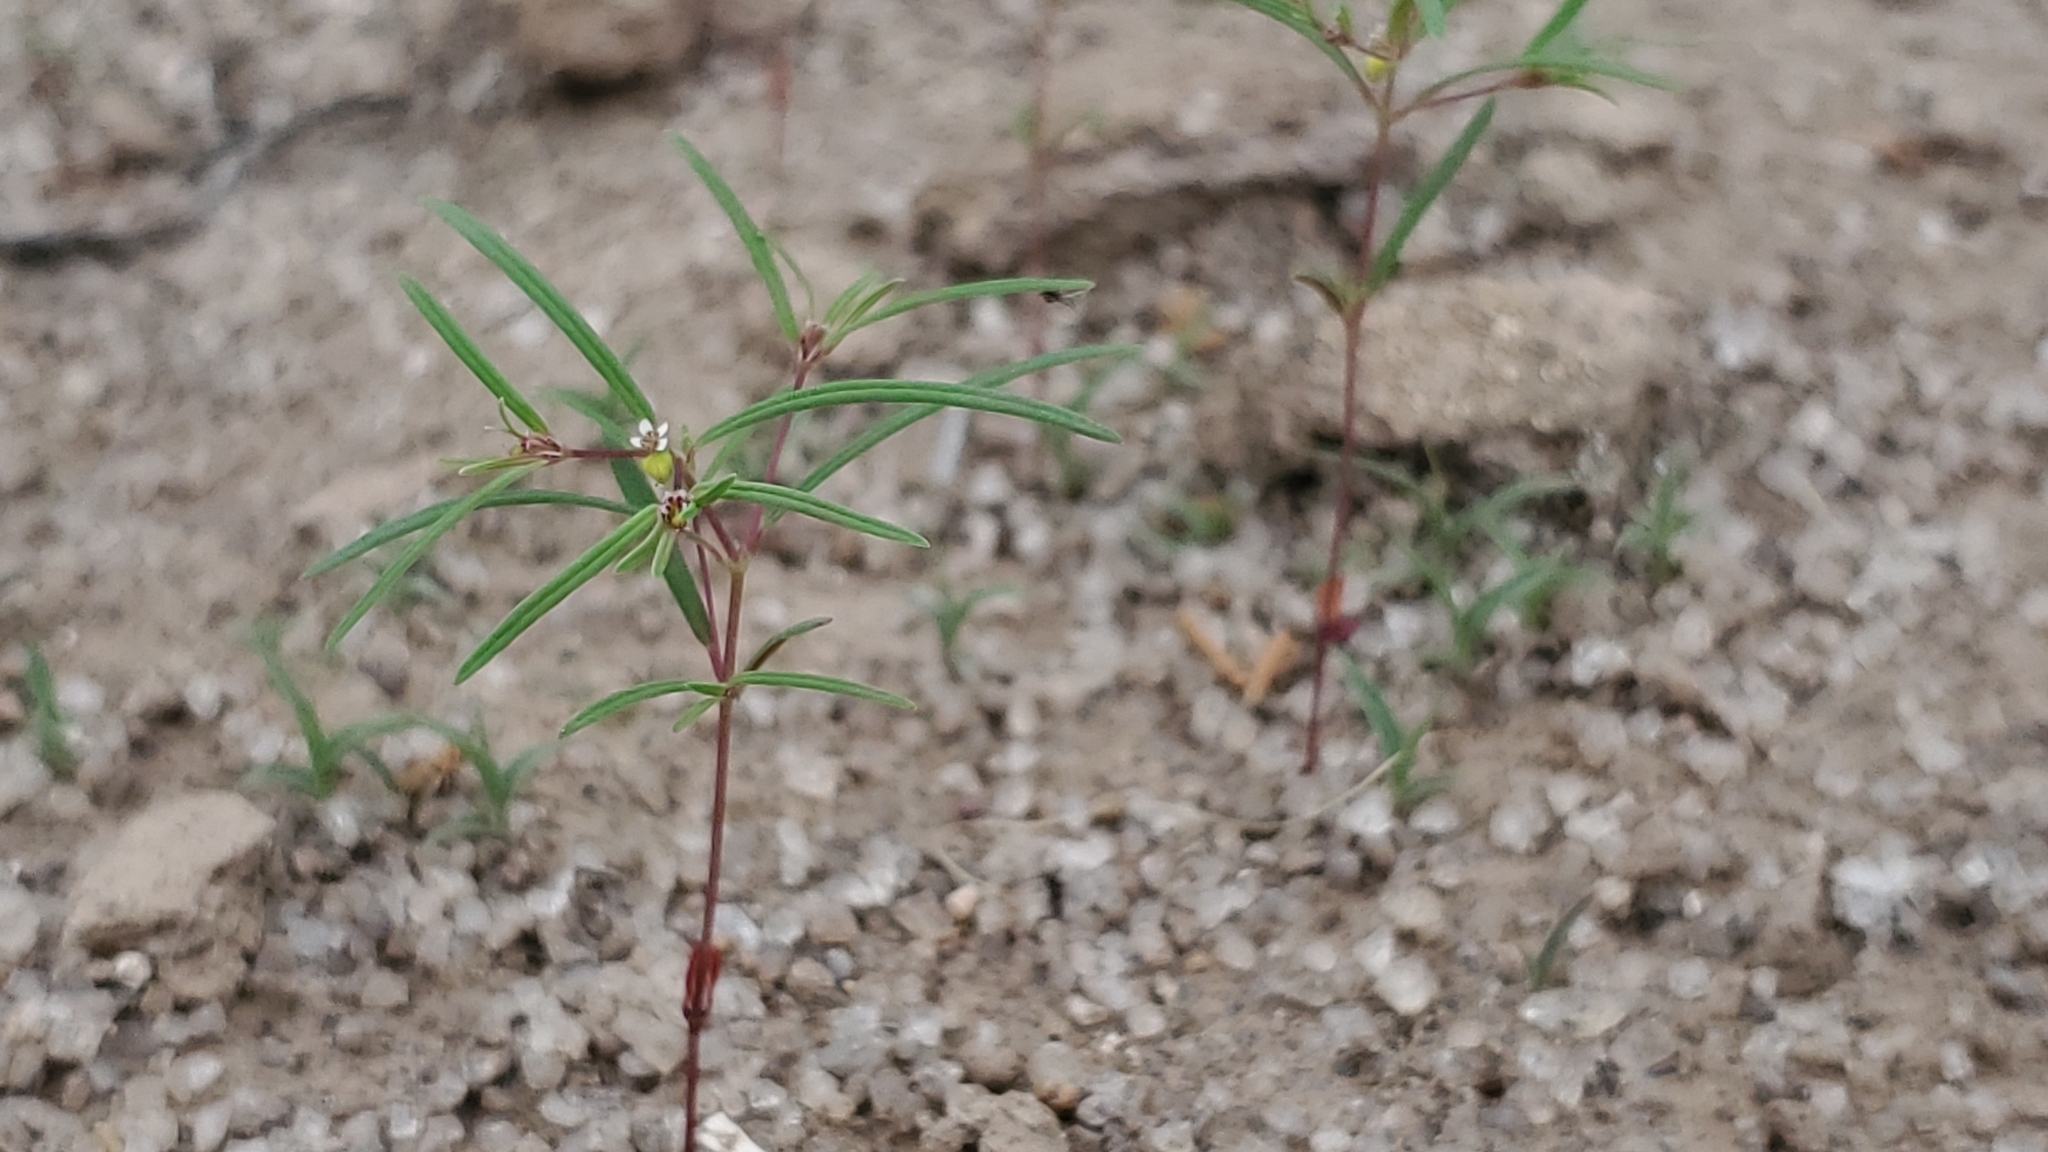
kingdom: Plantae
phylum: Tracheophyta
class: Magnoliopsida
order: Malpighiales
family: Euphorbiaceae
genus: Euphorbia
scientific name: Euphorbia revoluta
